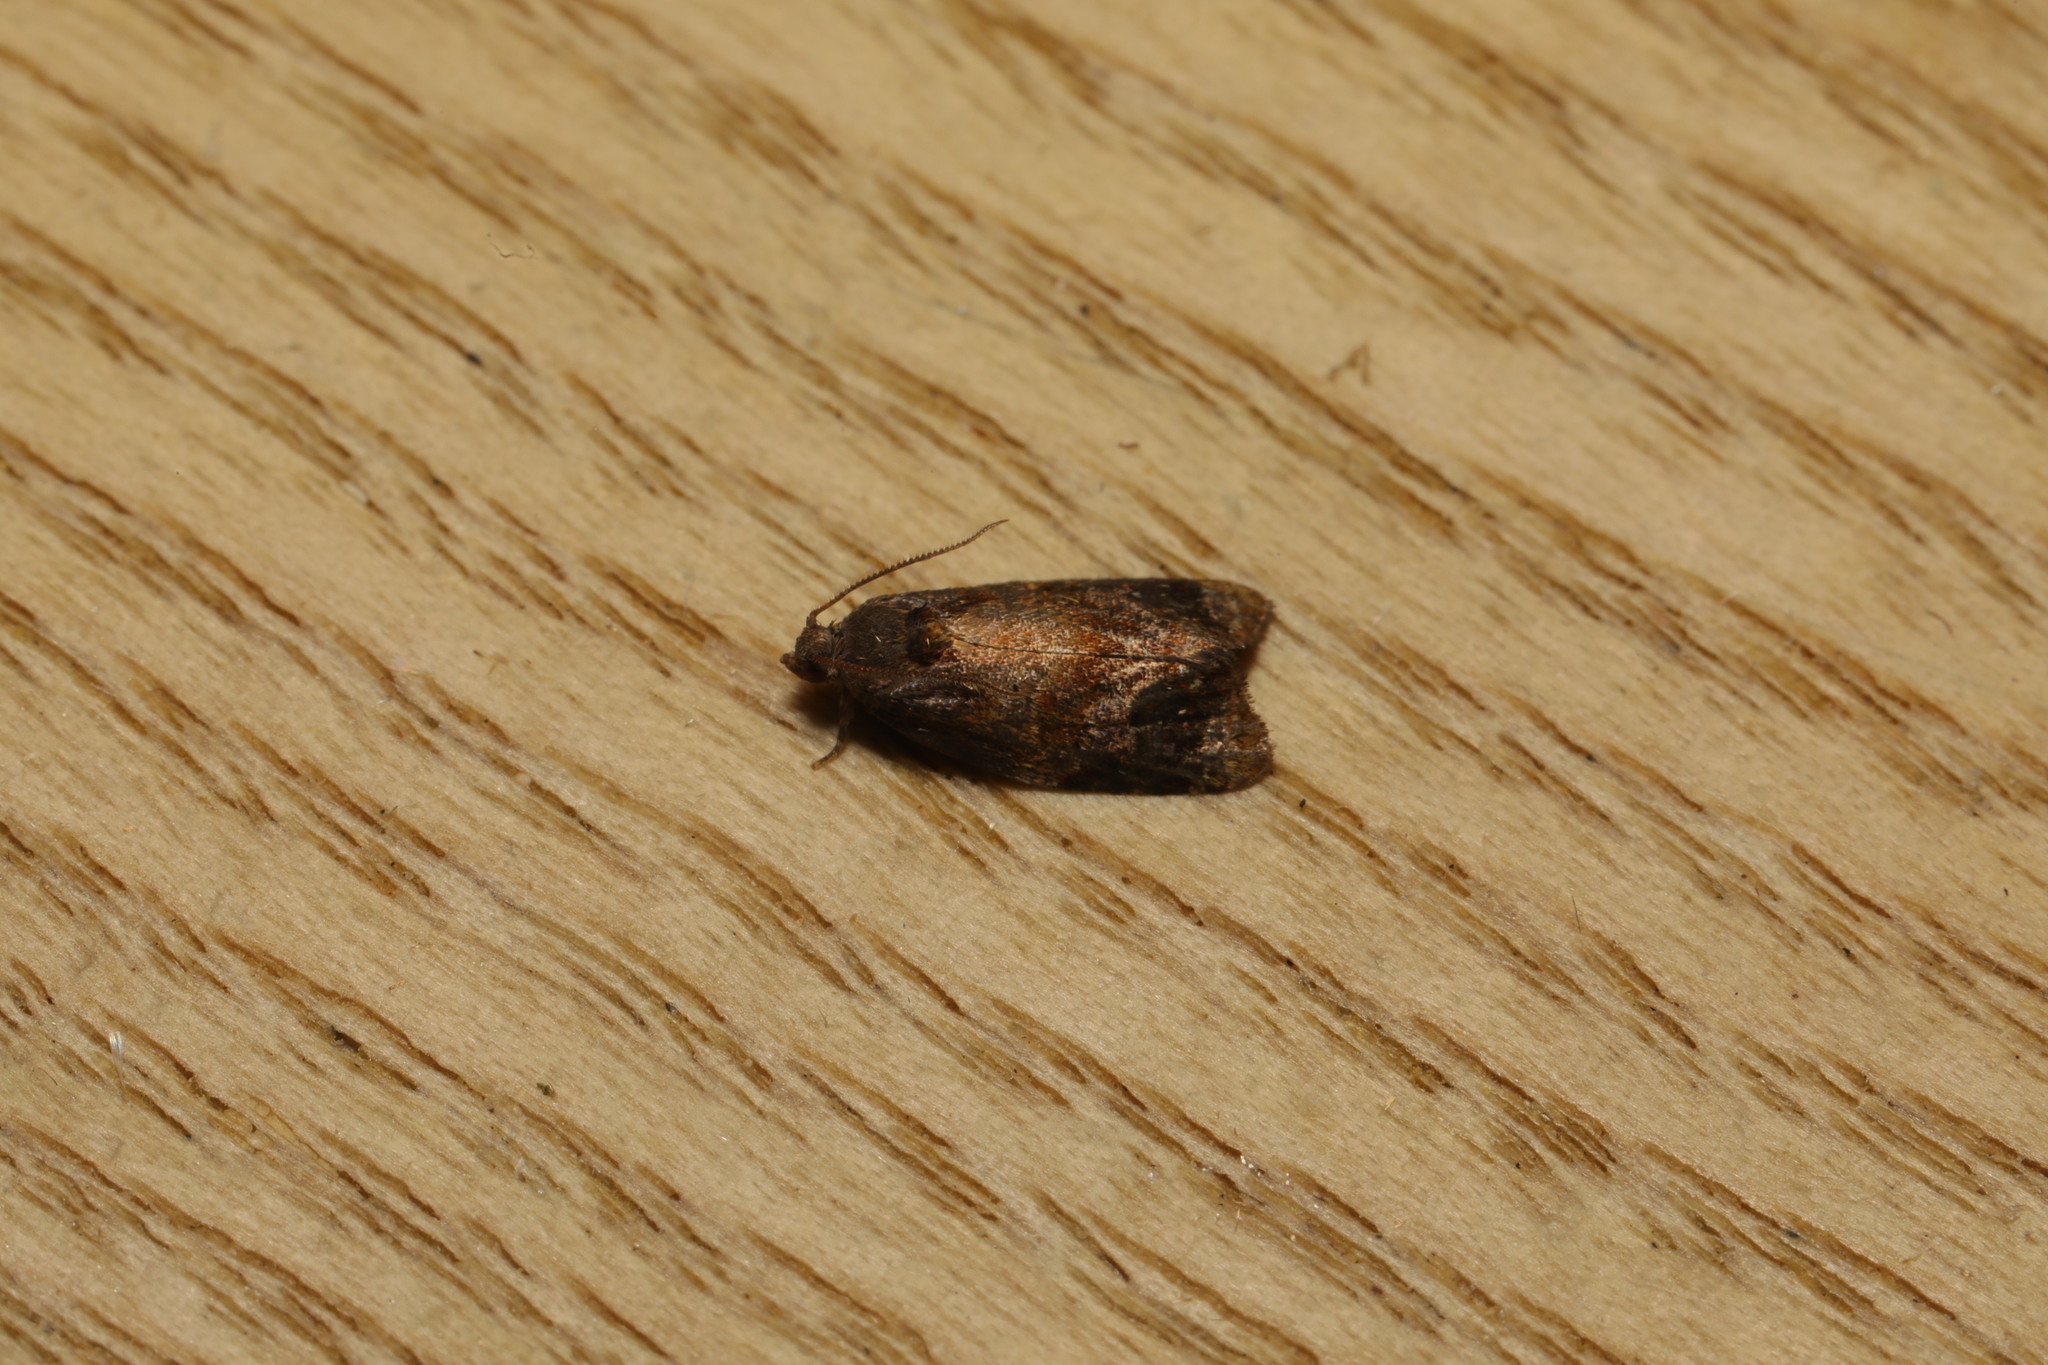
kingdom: Animalia
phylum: Arthropoda
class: Insecta
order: Lepidoptera
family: Tortricidae
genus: Ditula
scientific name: Ditula angustiorana
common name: Red-barred tortrix
